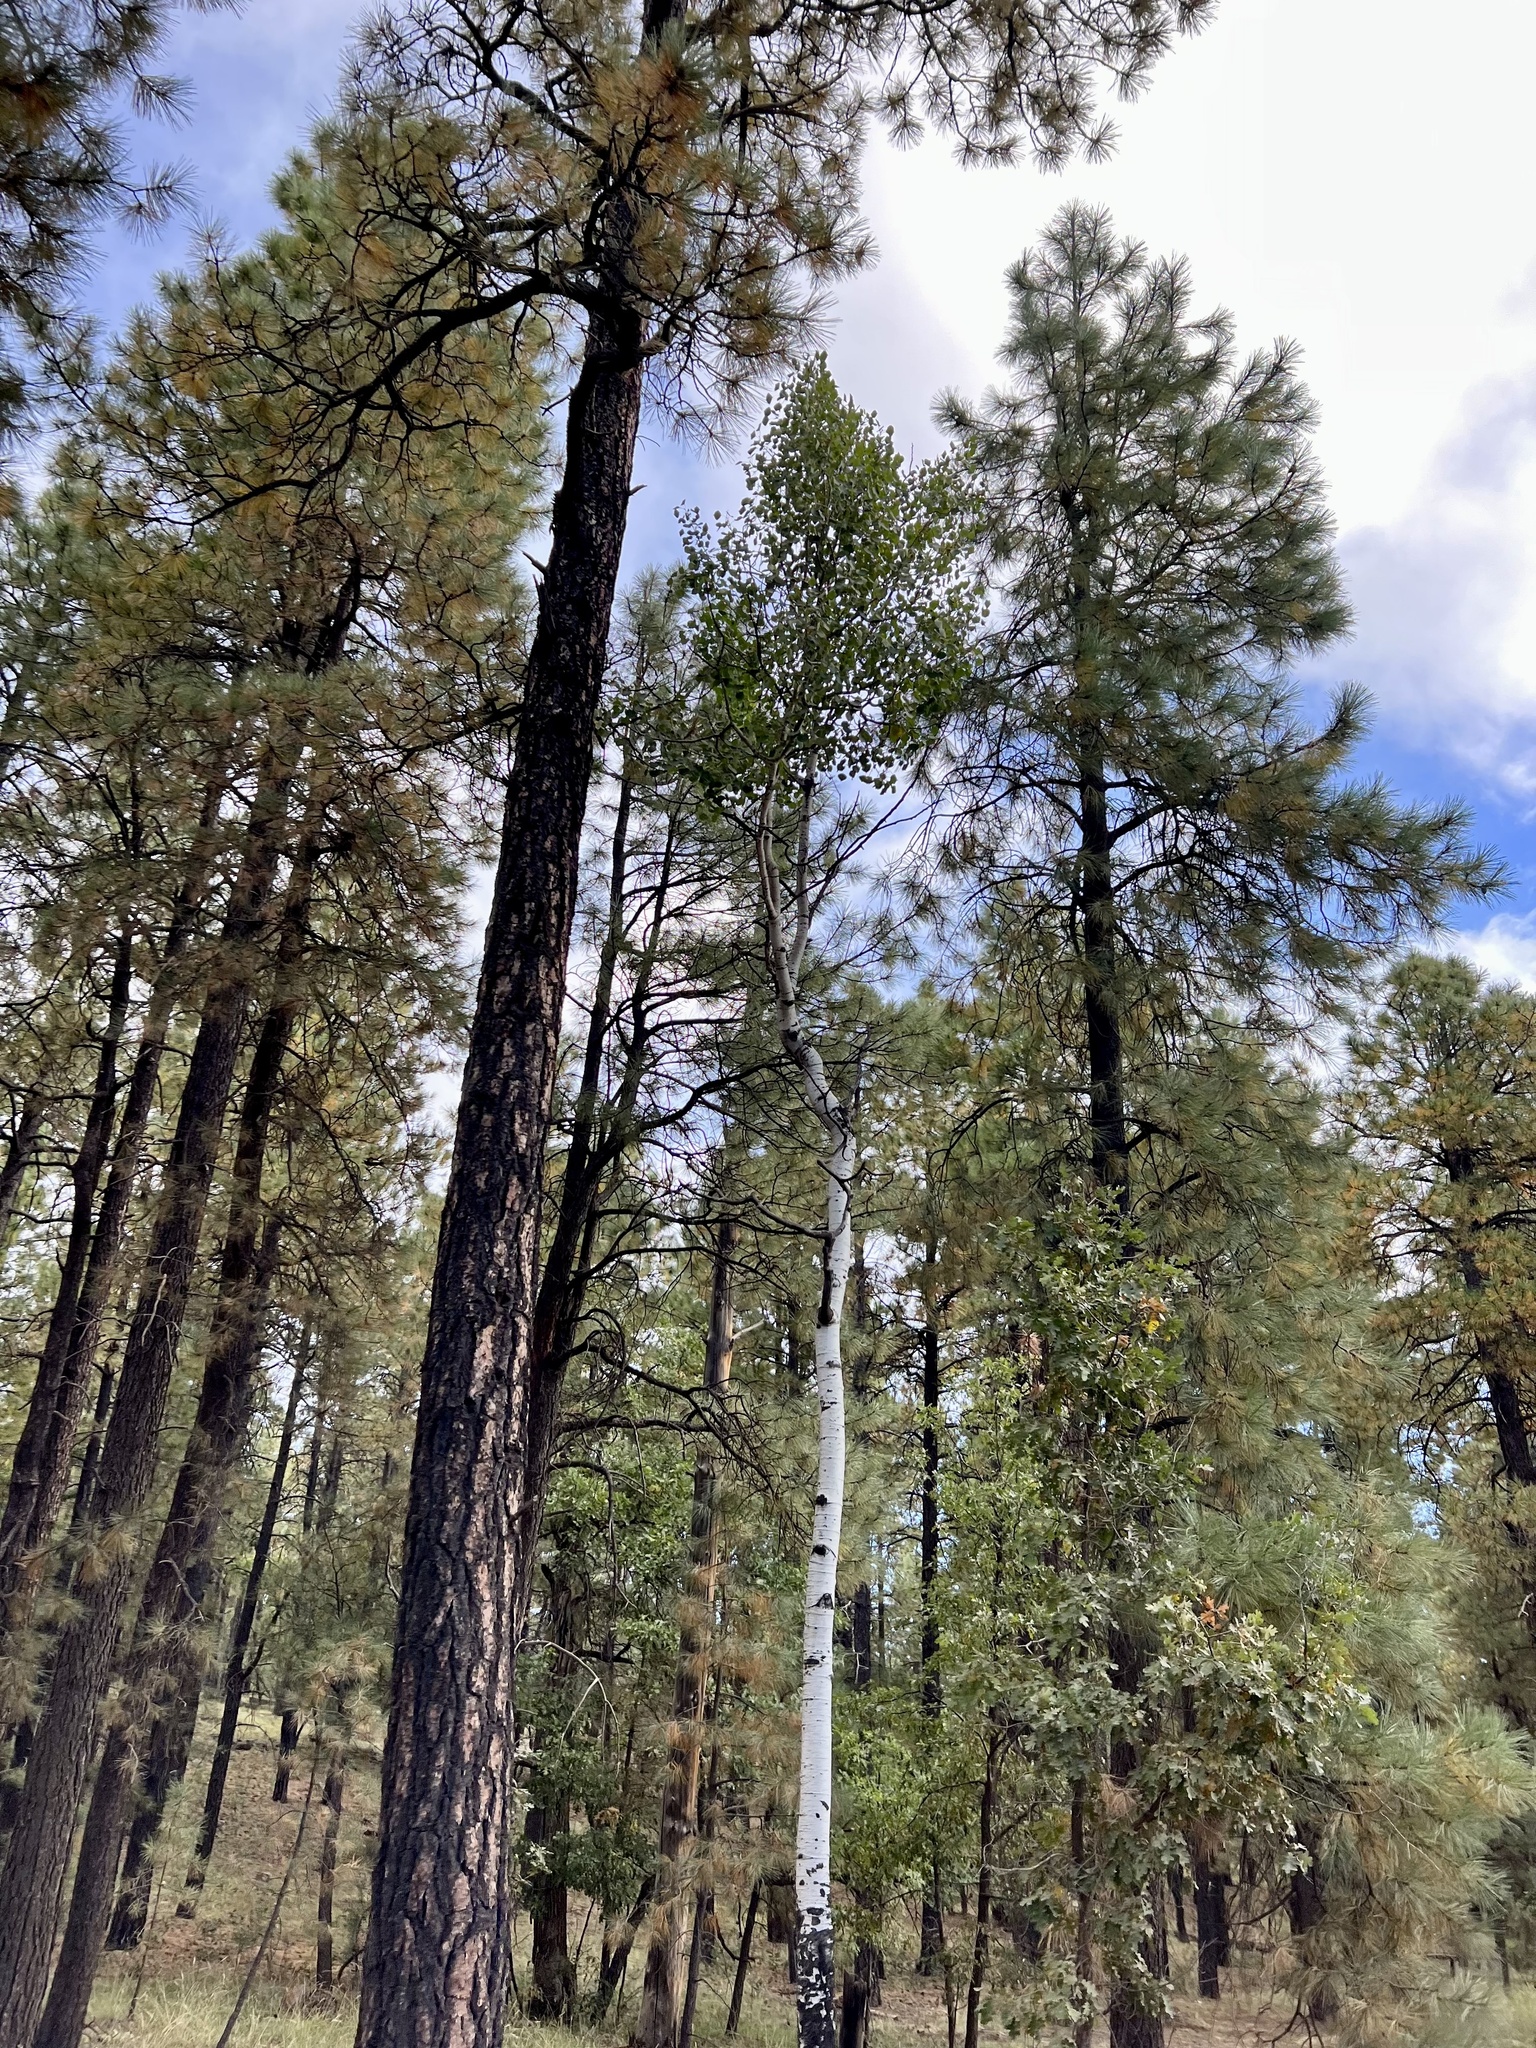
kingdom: Plantae
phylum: Tracheophyta
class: Magnoliopsida
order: Malpighiales
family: Salicaceae
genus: Populus
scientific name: Populus tremuloides
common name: Quaking aspen
